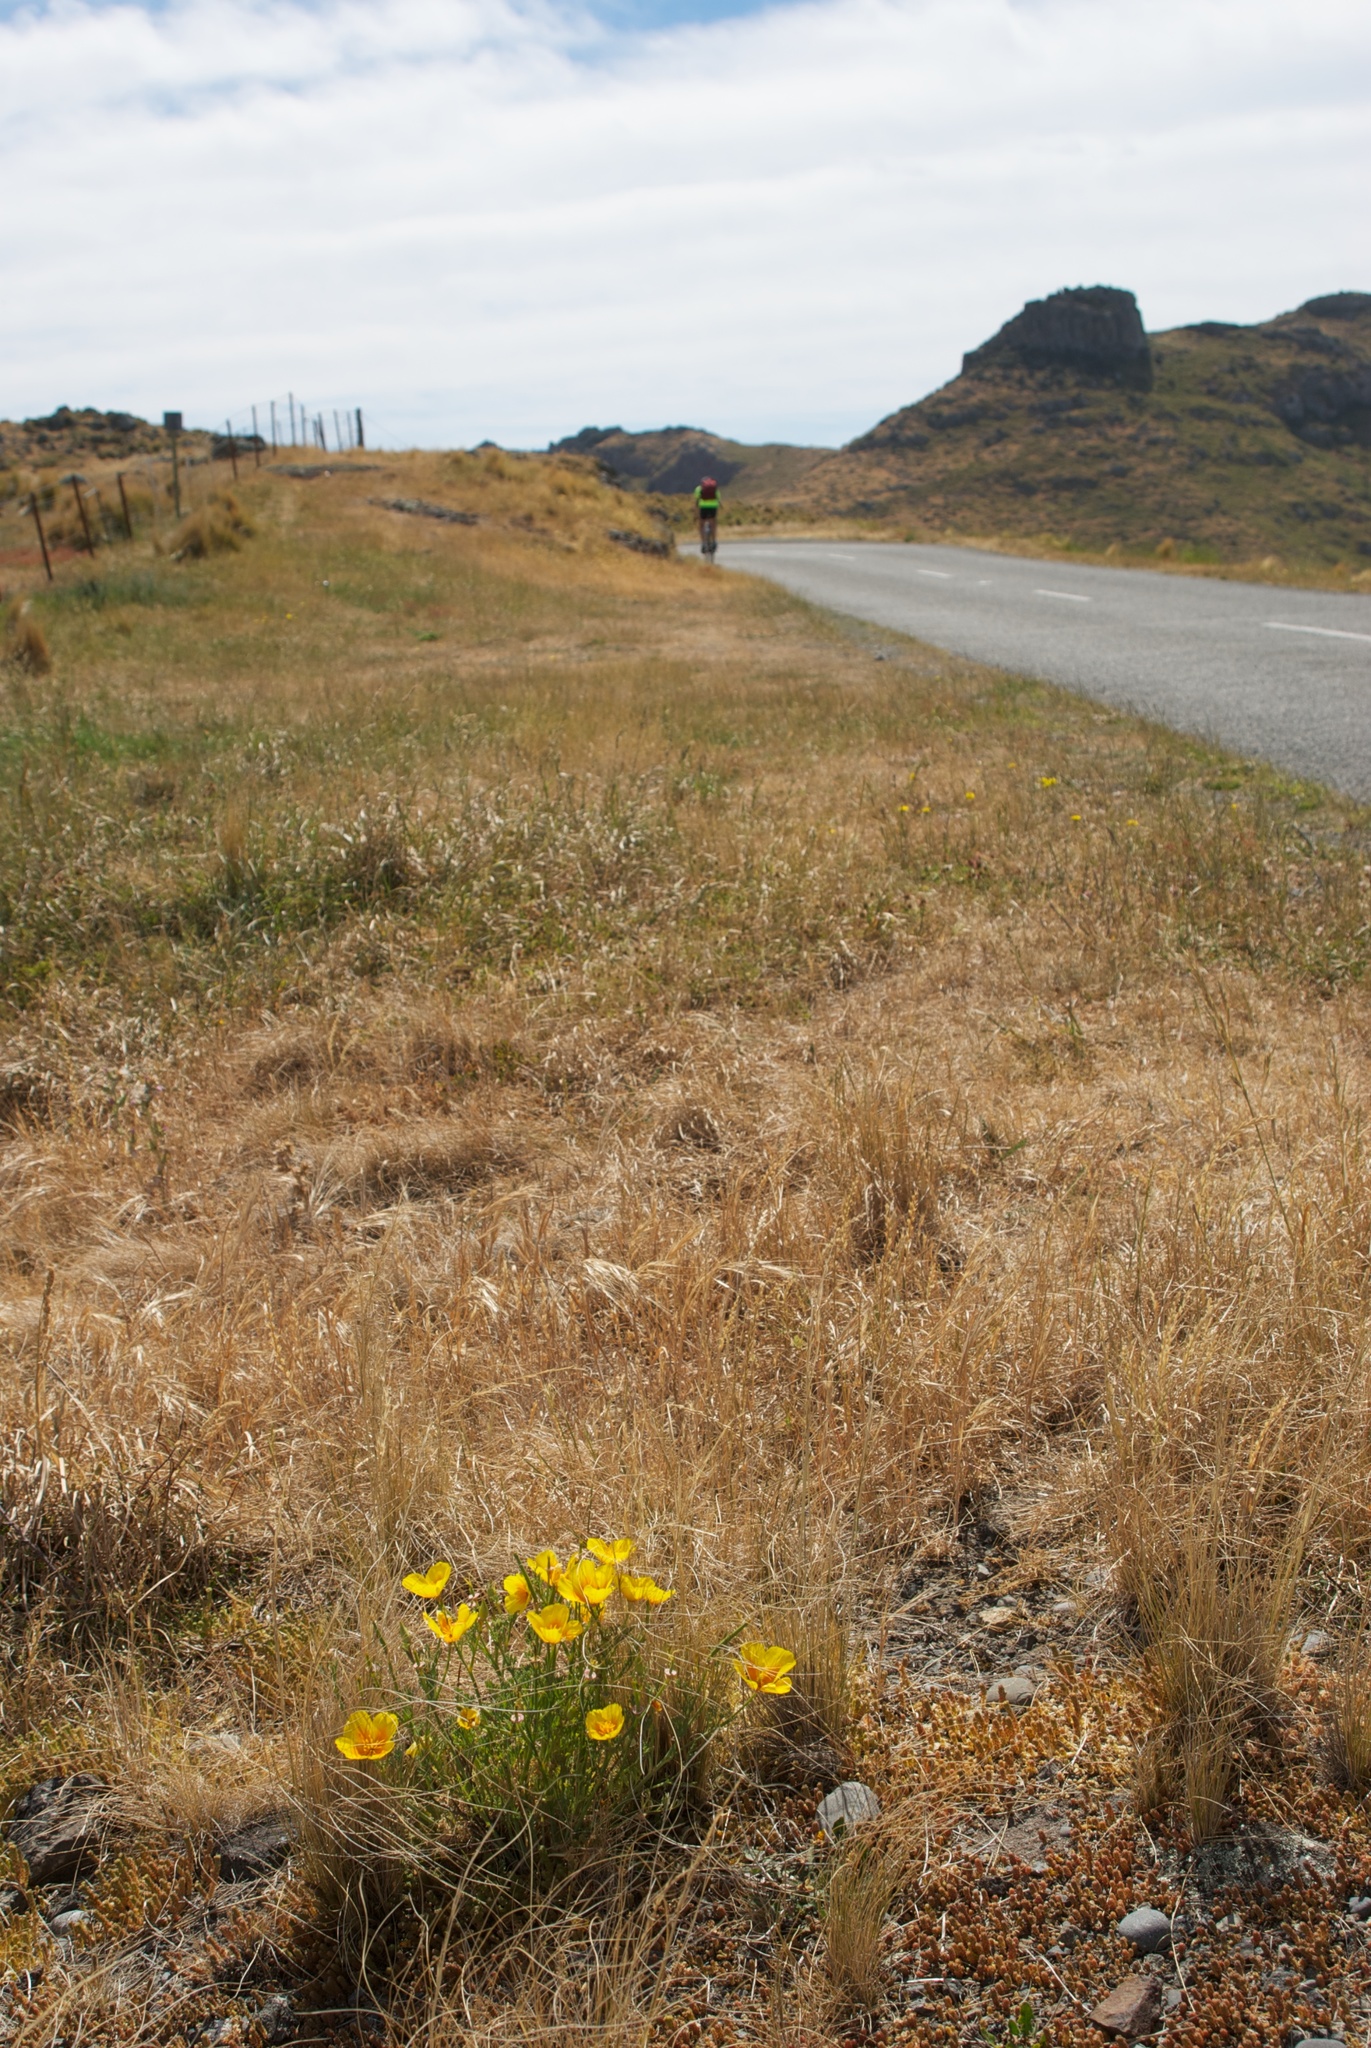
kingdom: Plantae
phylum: Tracheophyta
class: Magnoliopsida
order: Ranunculales
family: Papaveraceae
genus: Eschscholzia
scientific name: Eschscholzia californica
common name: California poppy
